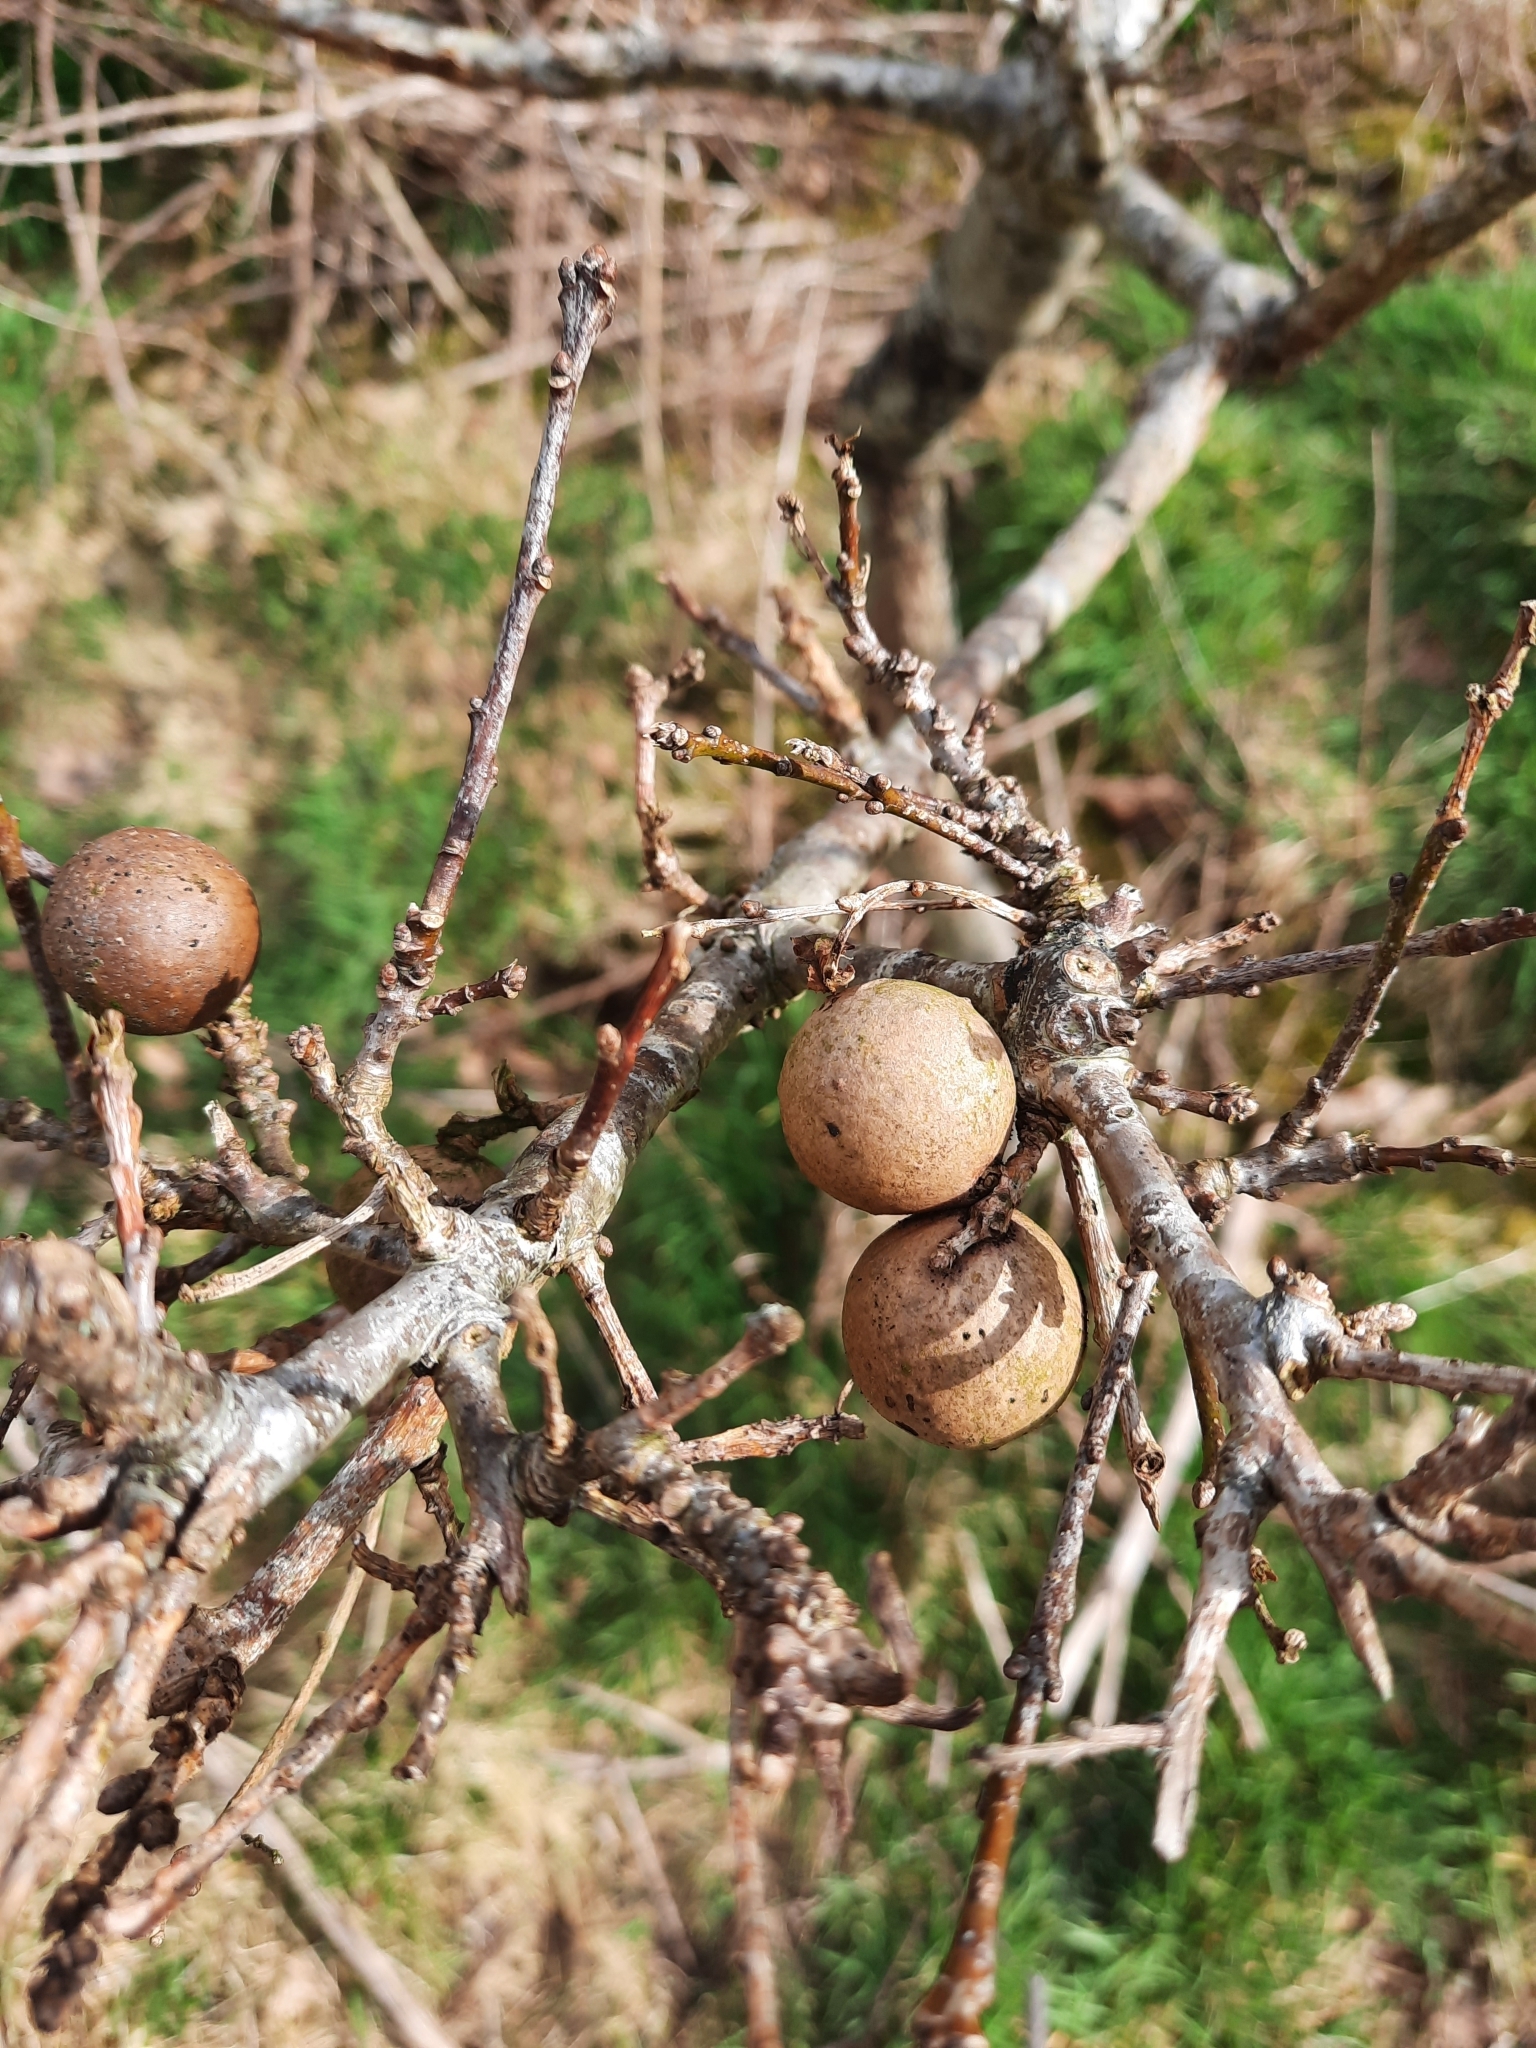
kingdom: Animalia
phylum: Arthropoda
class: Insecta
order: Hymenoptera
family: Cynipidae
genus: Andricus
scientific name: Andricus kollari
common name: Marble gall
